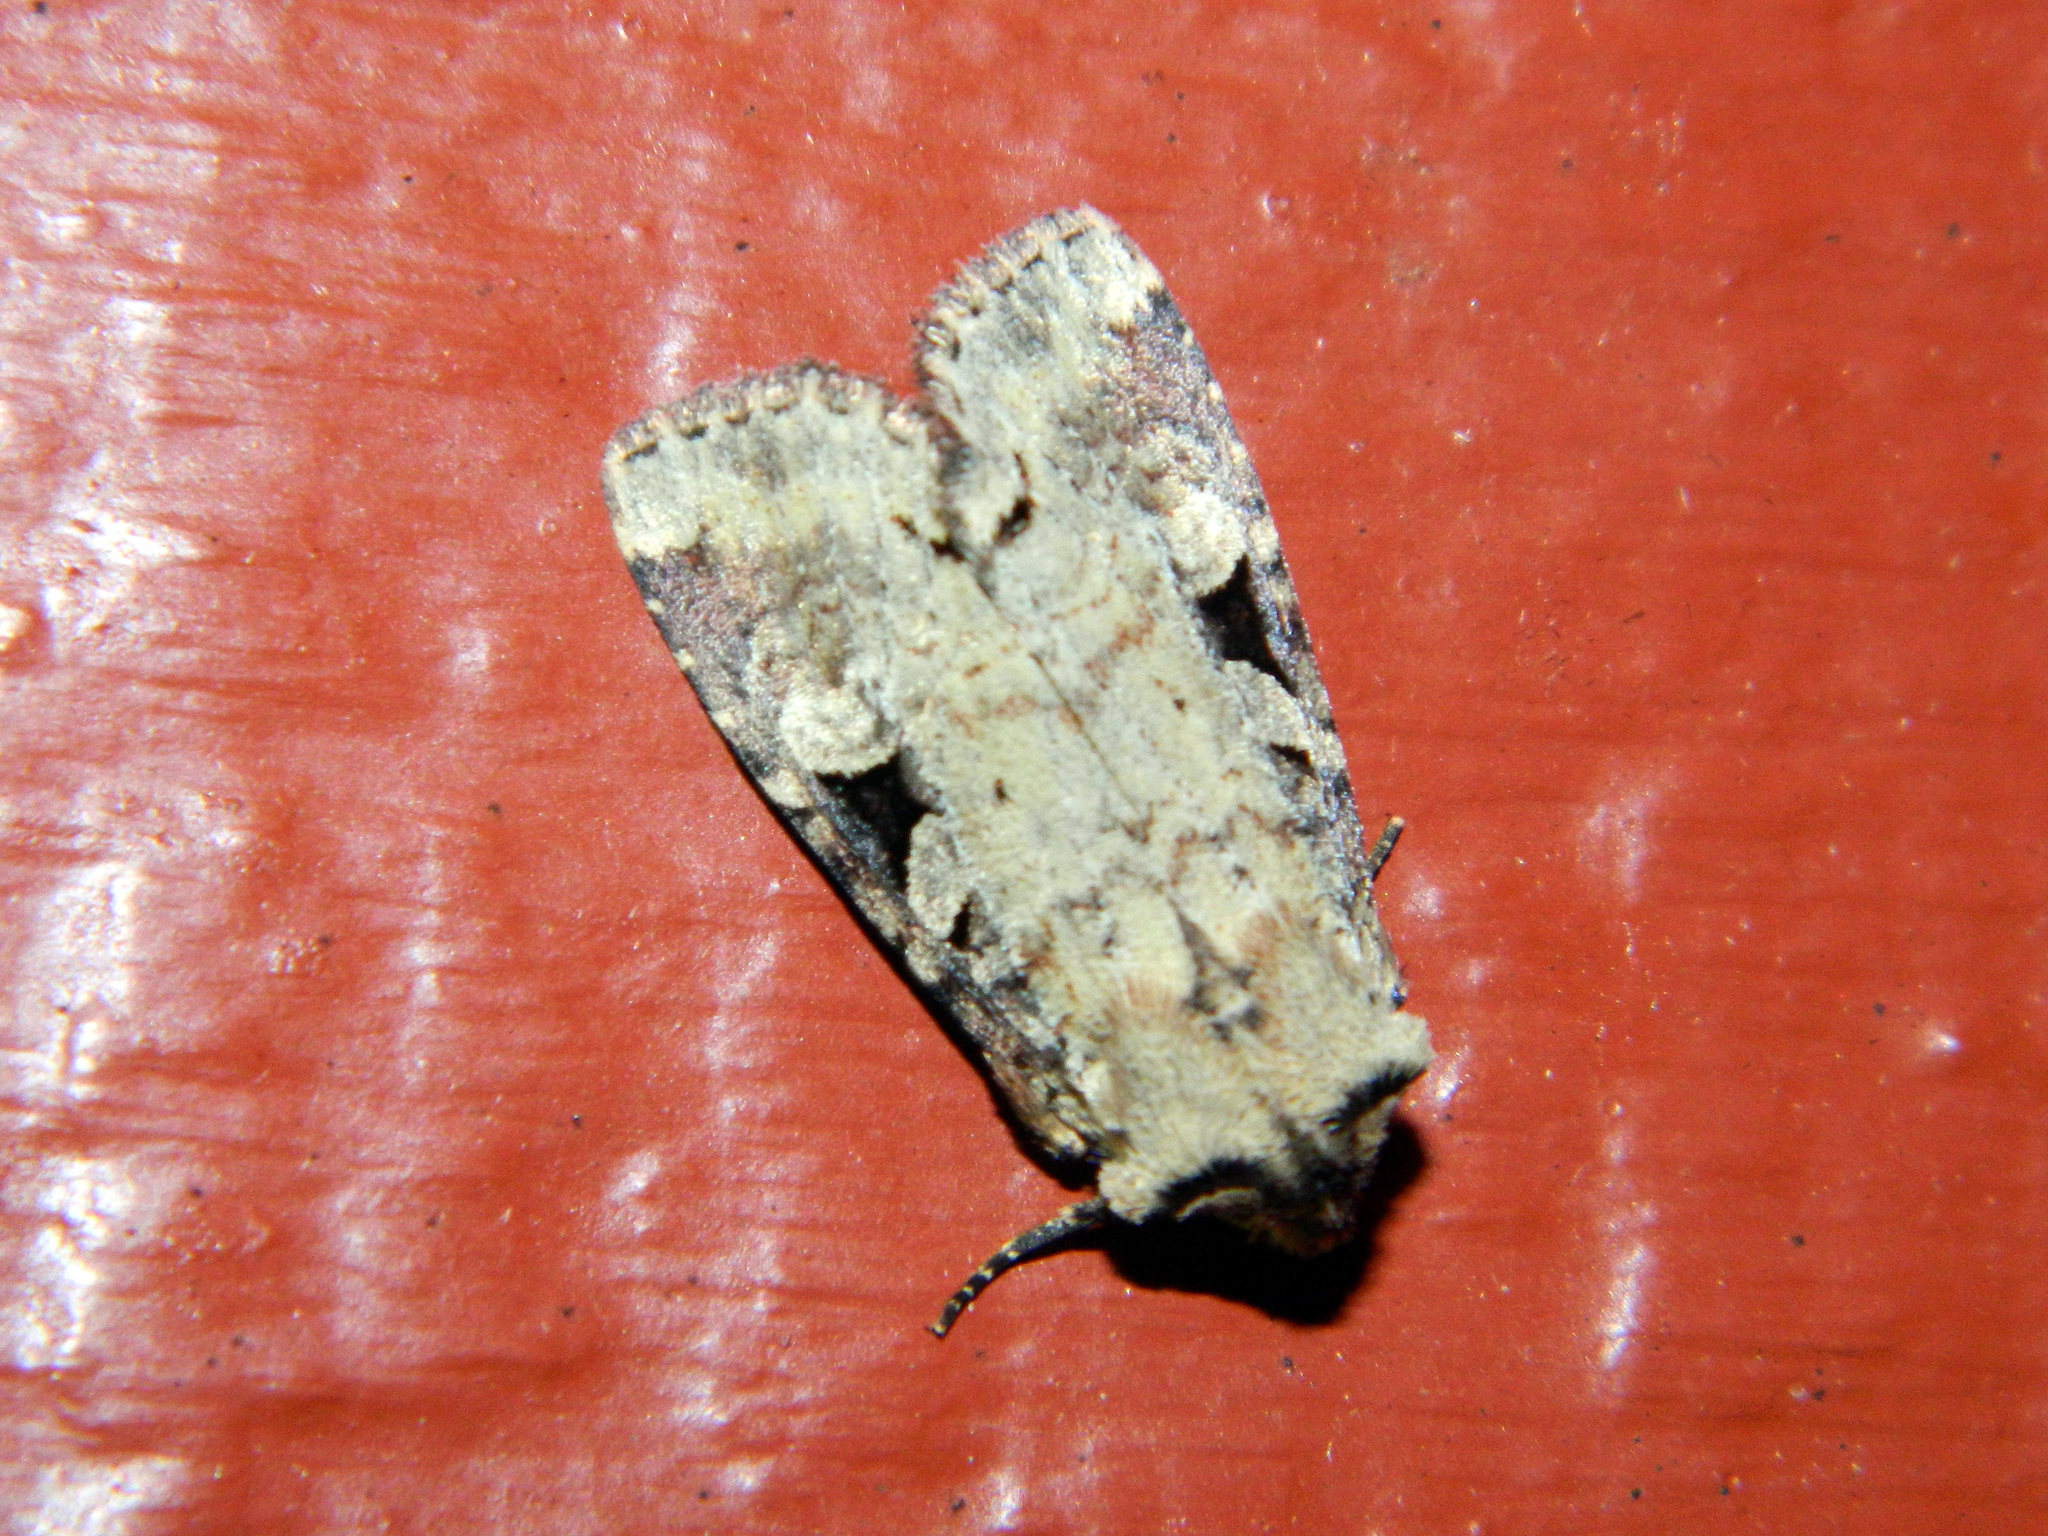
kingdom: Animalia
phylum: Arthropoda
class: Insecta
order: Lepidoptera
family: Noctuidae
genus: Hillia
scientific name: Hillia iris
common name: Iris rover moth
